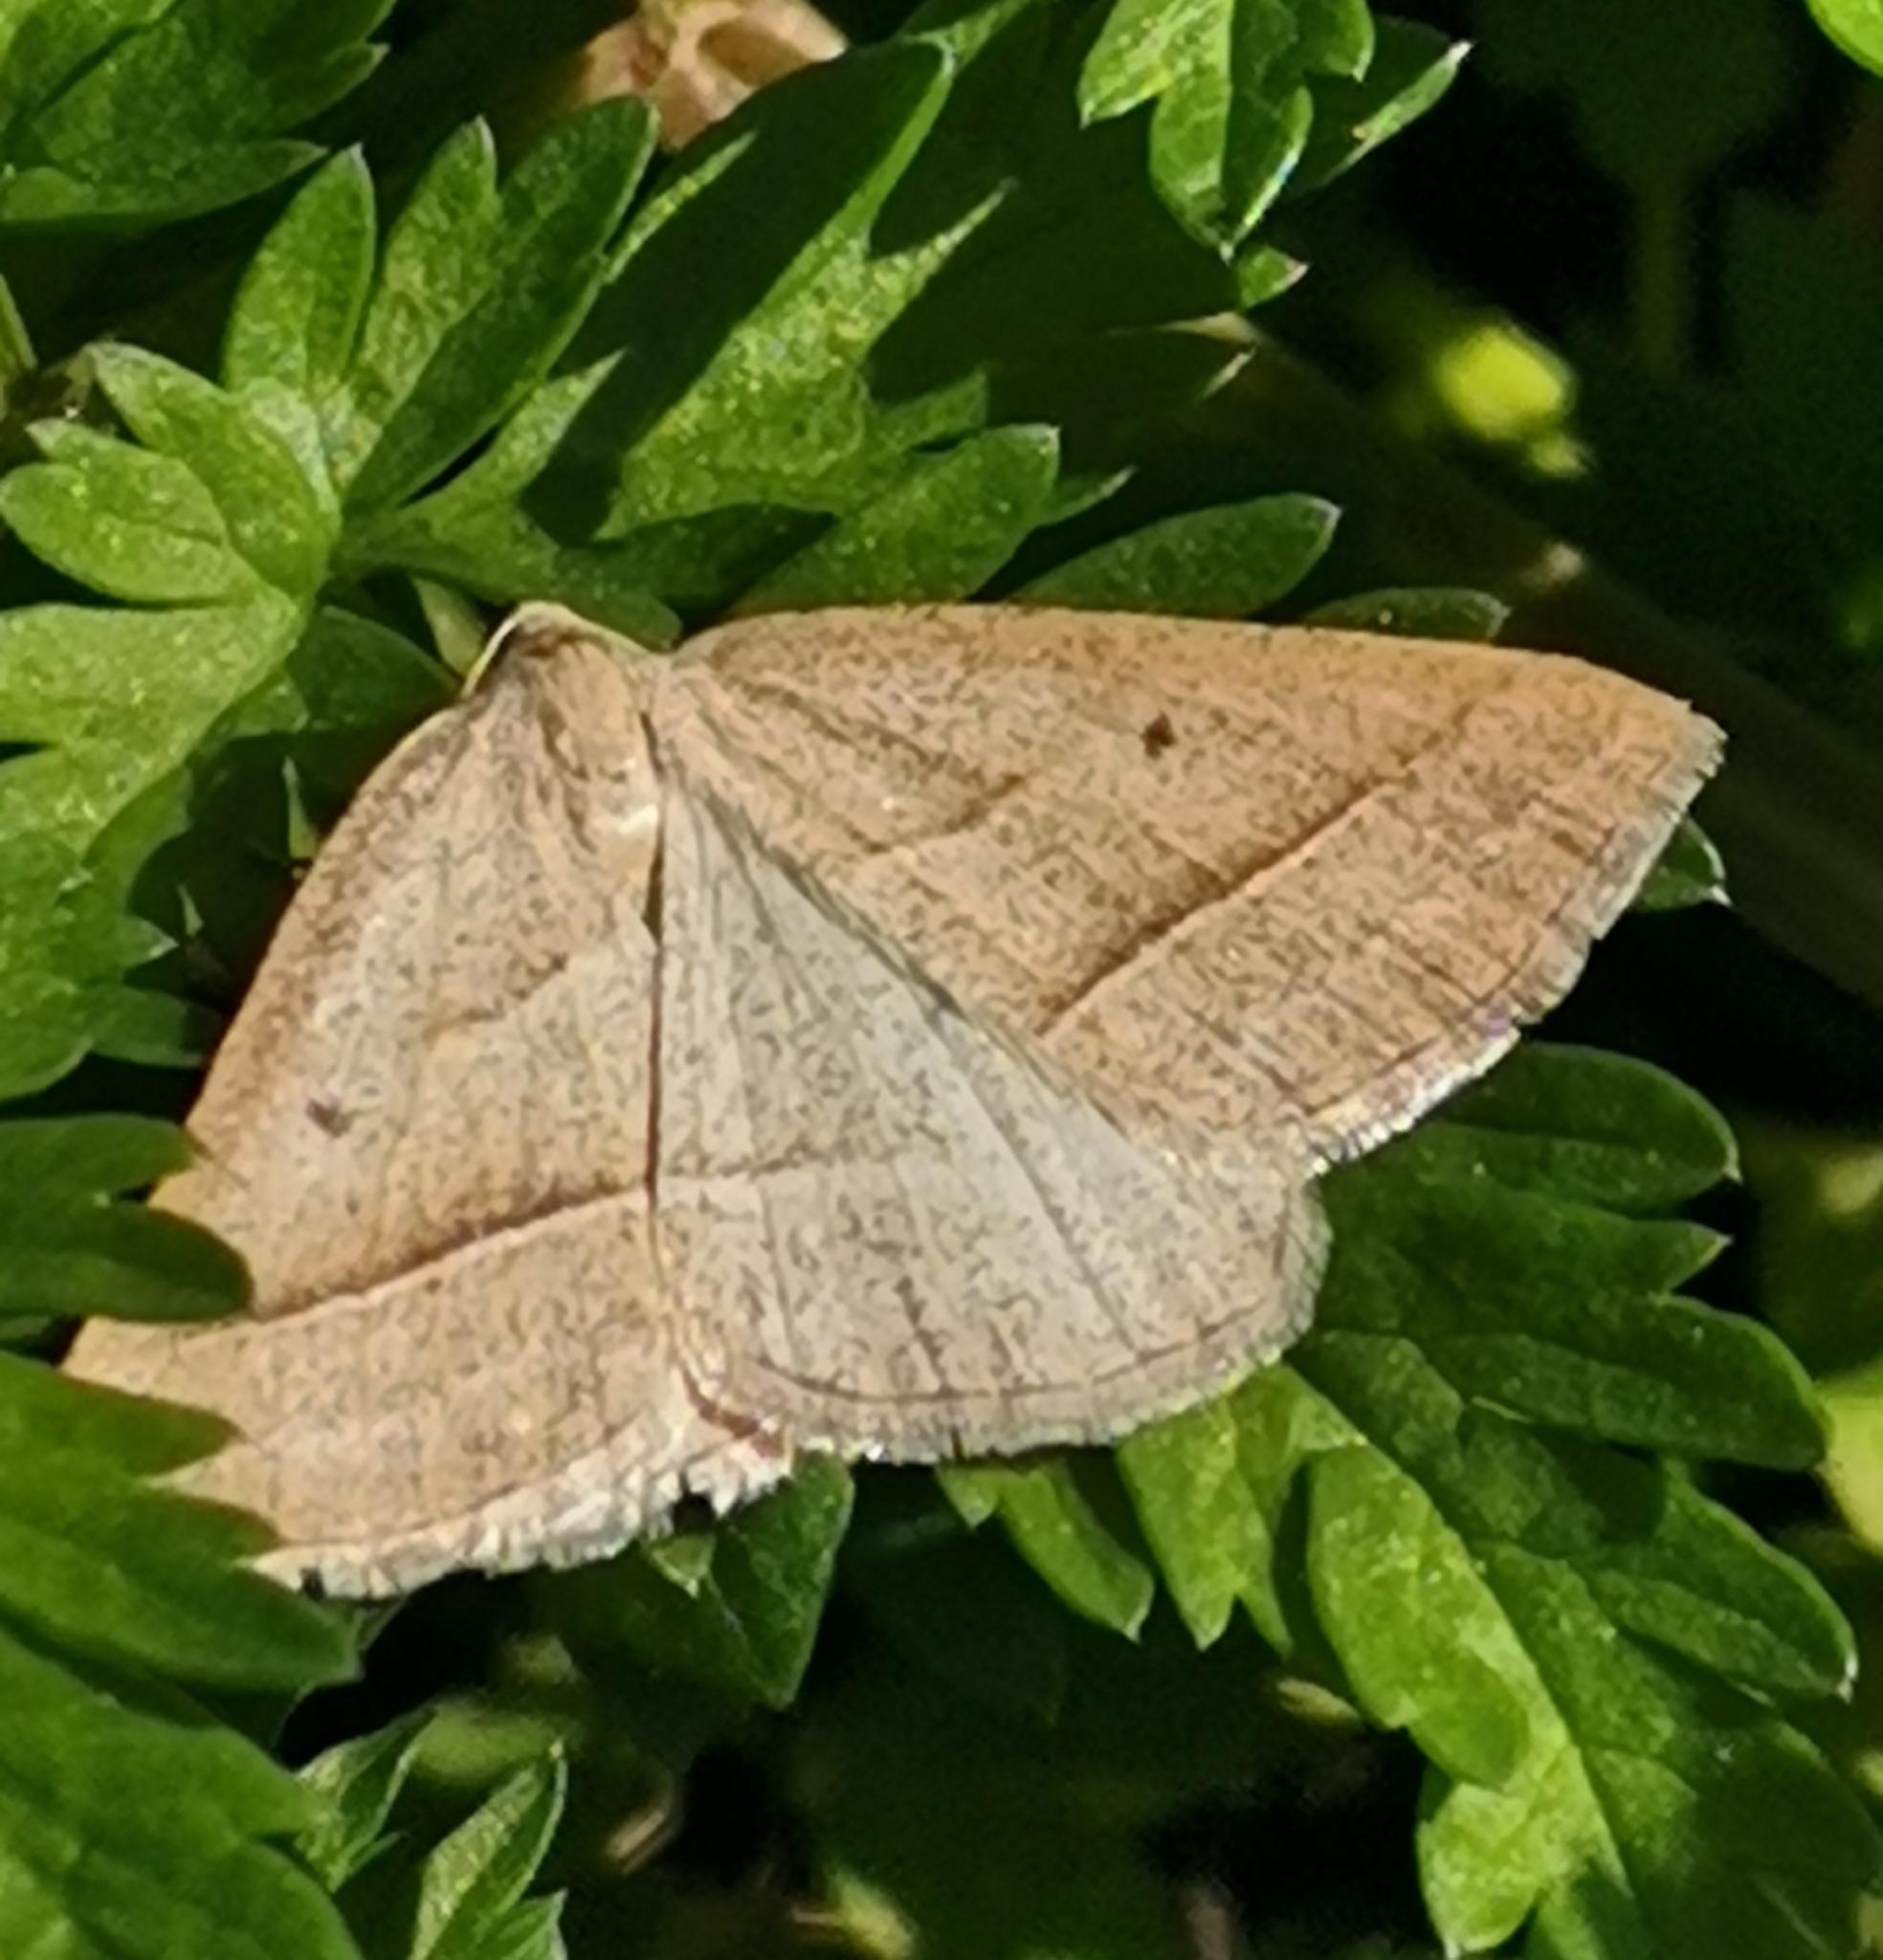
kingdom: Animalia
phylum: Arthropoda
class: Insecta
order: Lepidoptera
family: Pterophoridae
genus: Pterophorus
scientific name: Pterophorus Petrophora chlorosata
